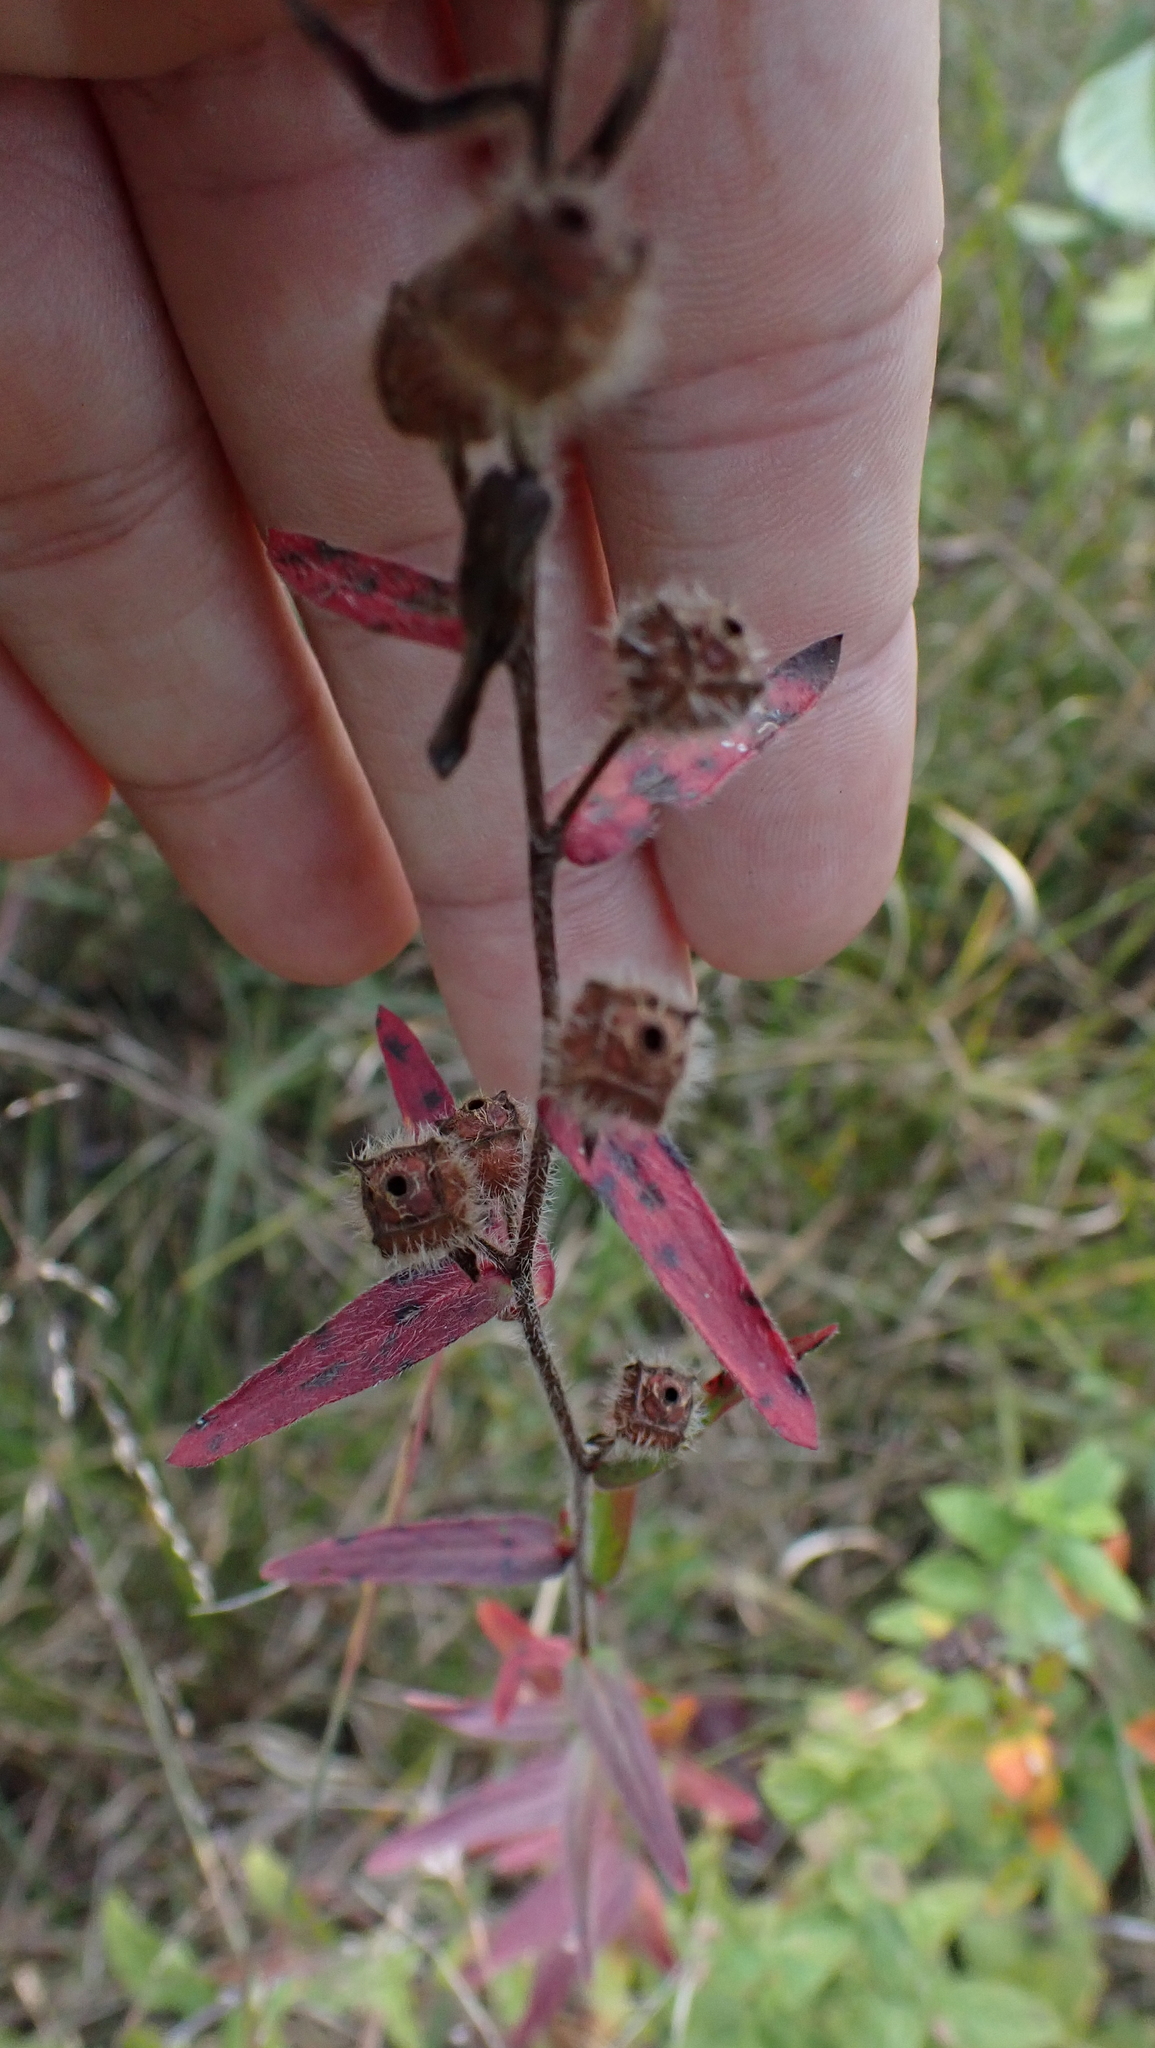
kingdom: Plantae
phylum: Tracheophyta
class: Magnoliopsida
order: Myrtales
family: Onagraceae
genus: Ludwigia
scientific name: Ludwigia hirtella
